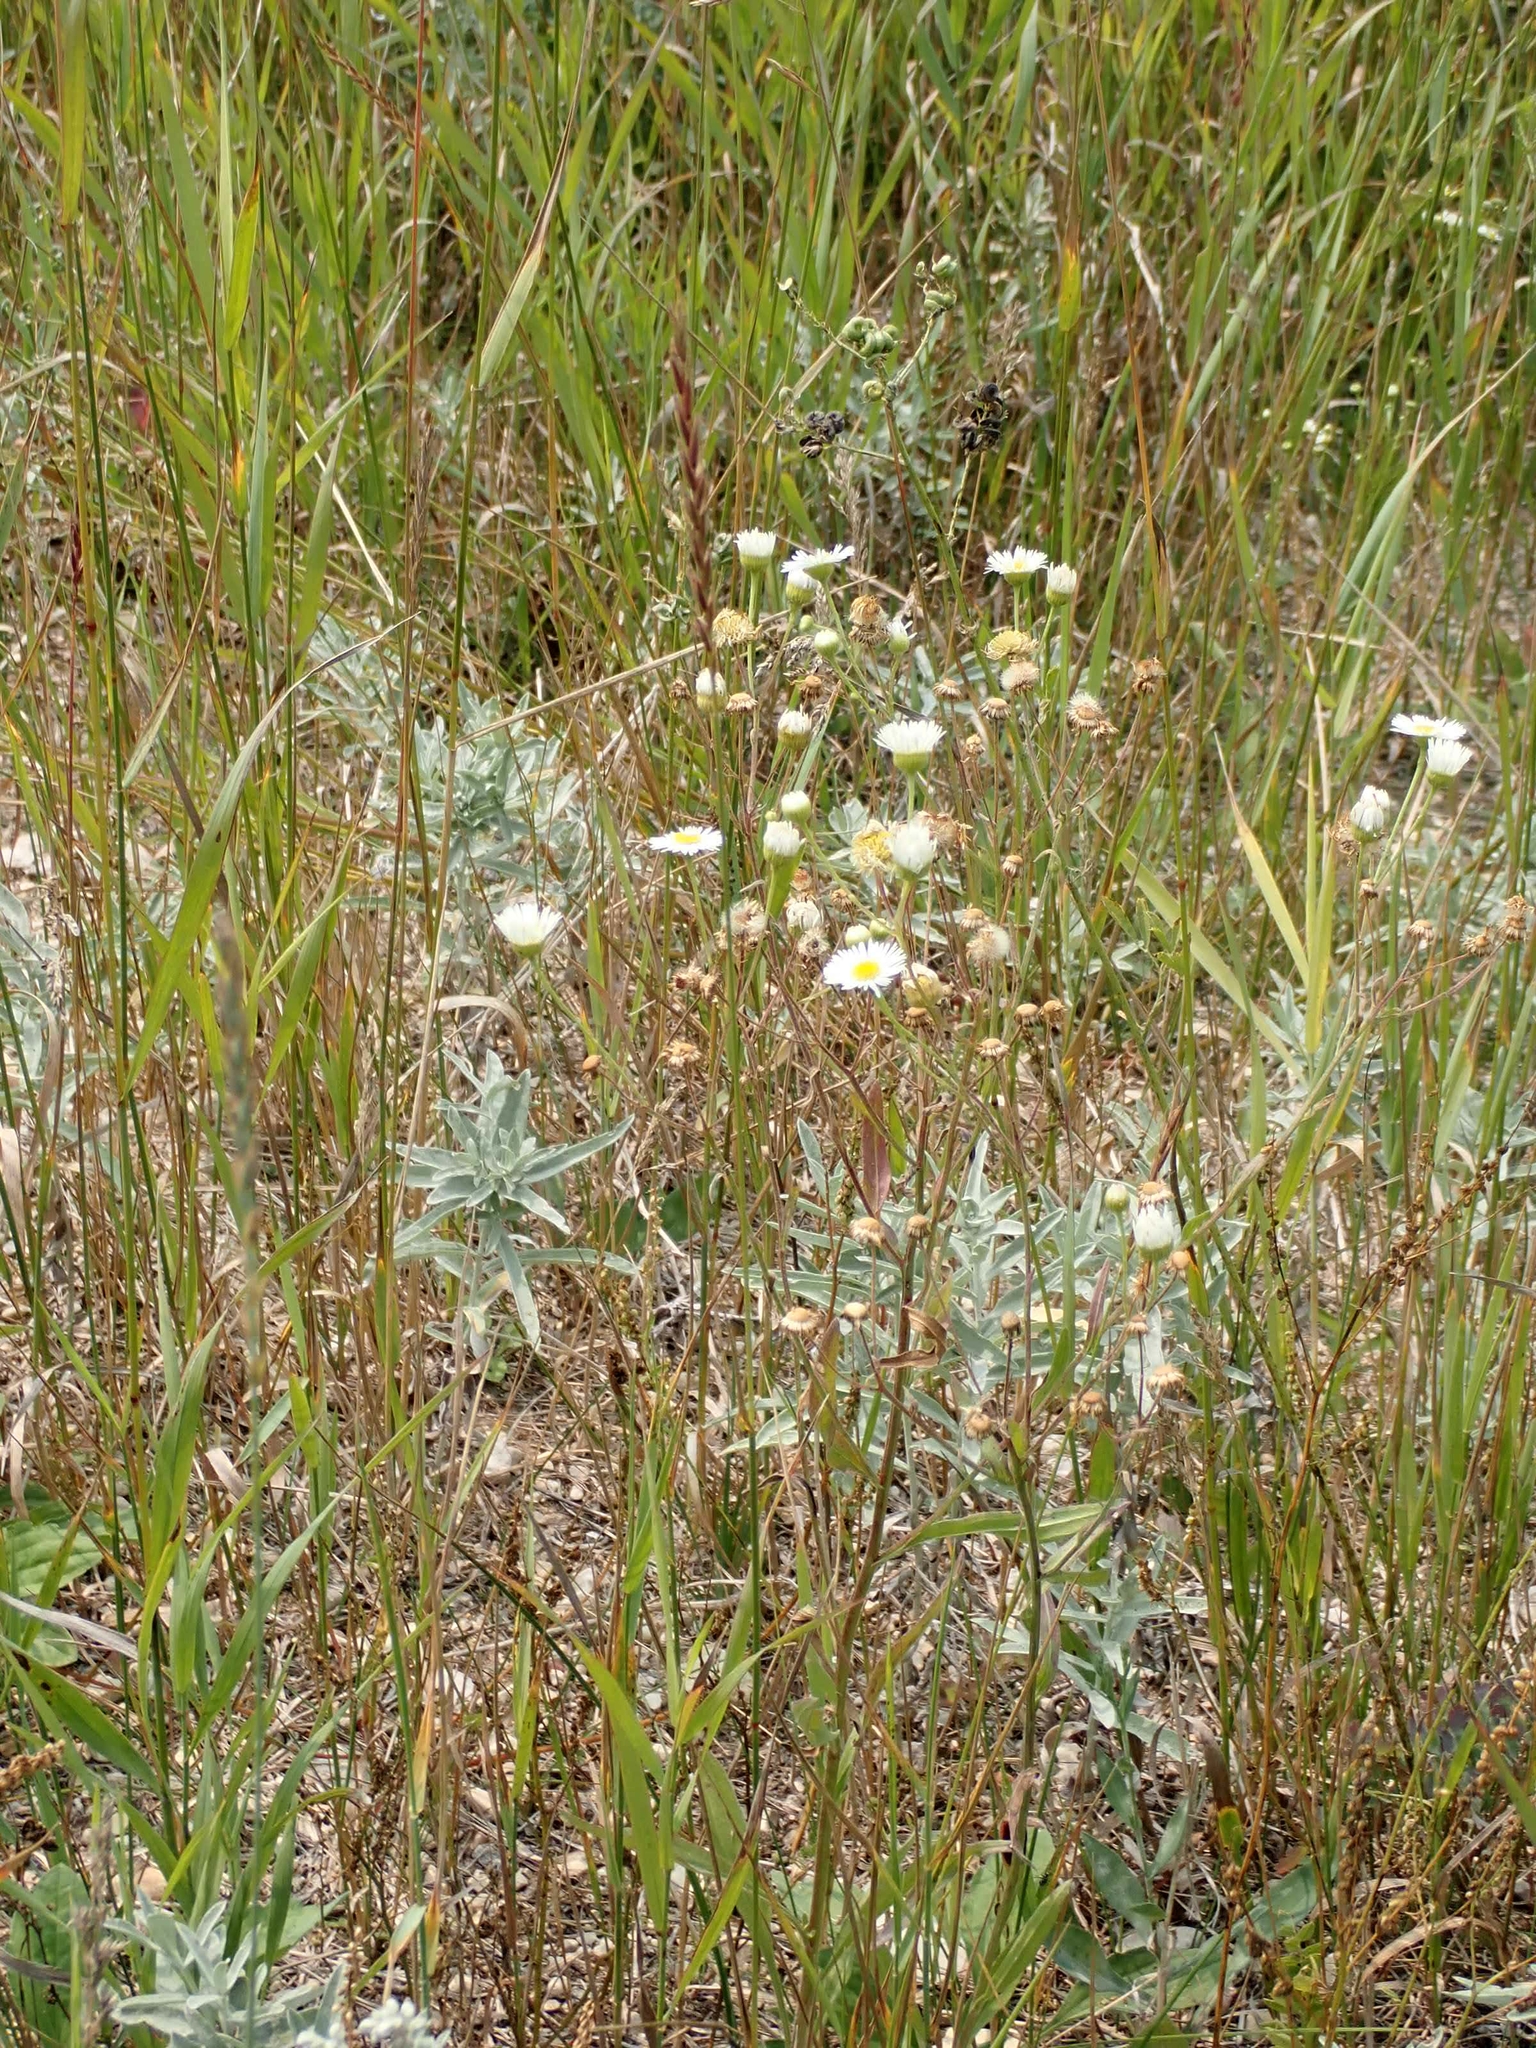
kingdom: Plantae
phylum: Tracheophyta
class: Magnoliopsida
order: Asterales
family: Asteraceae
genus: Erigeron
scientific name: Erigeron strigosus
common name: Common eastern fleabane
